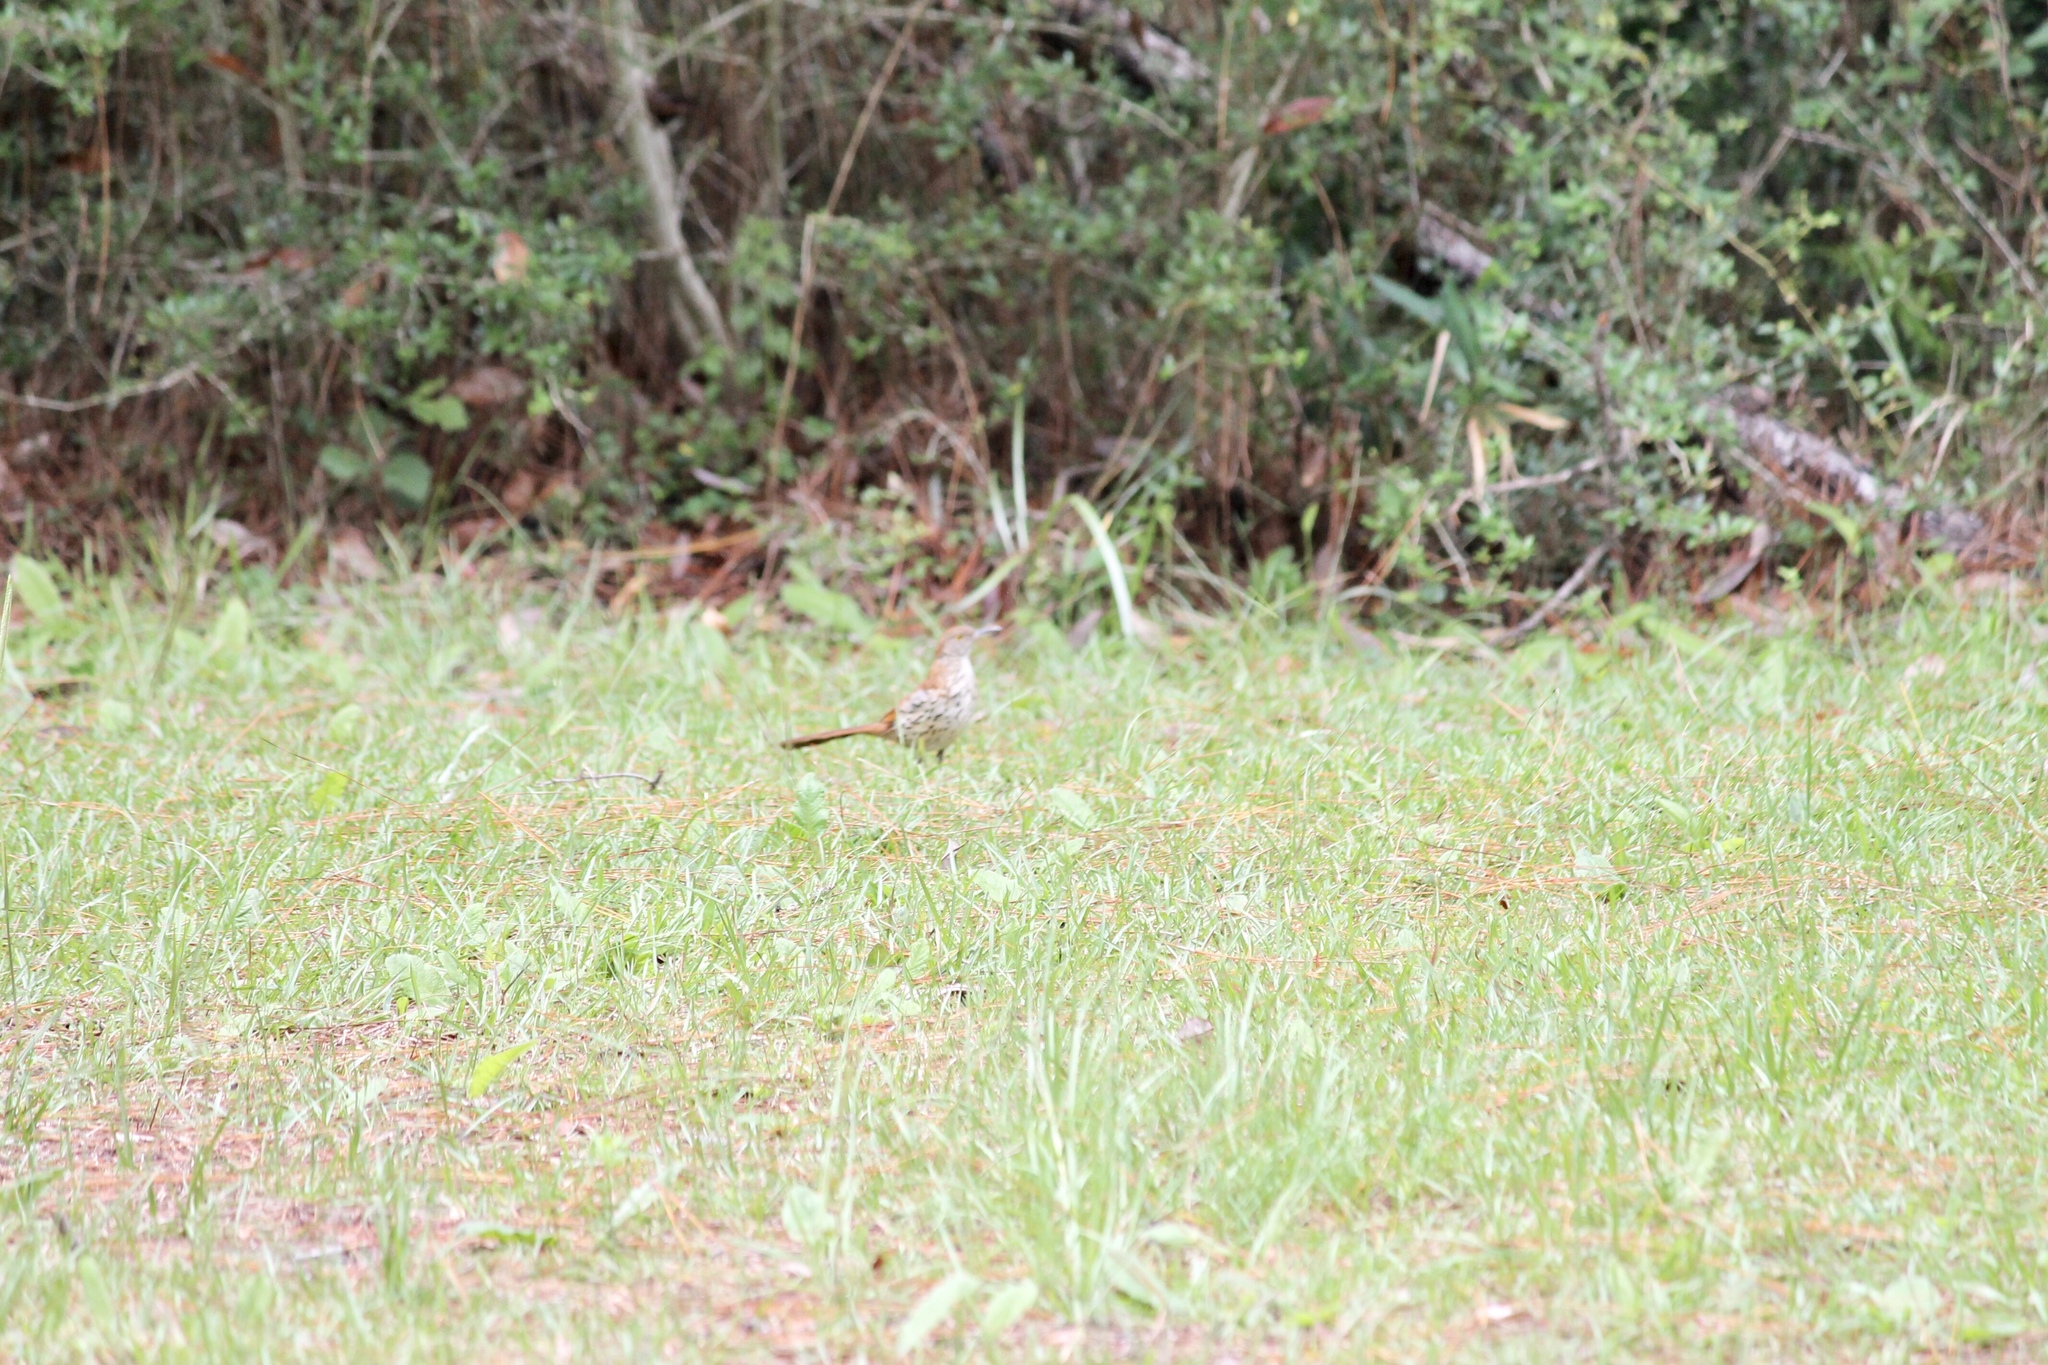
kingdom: Animalia
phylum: Chordata
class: Aves
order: Passeriformes
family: Mimidae
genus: Toxostoma
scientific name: Toxostoma rufum
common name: Brown thrasher
